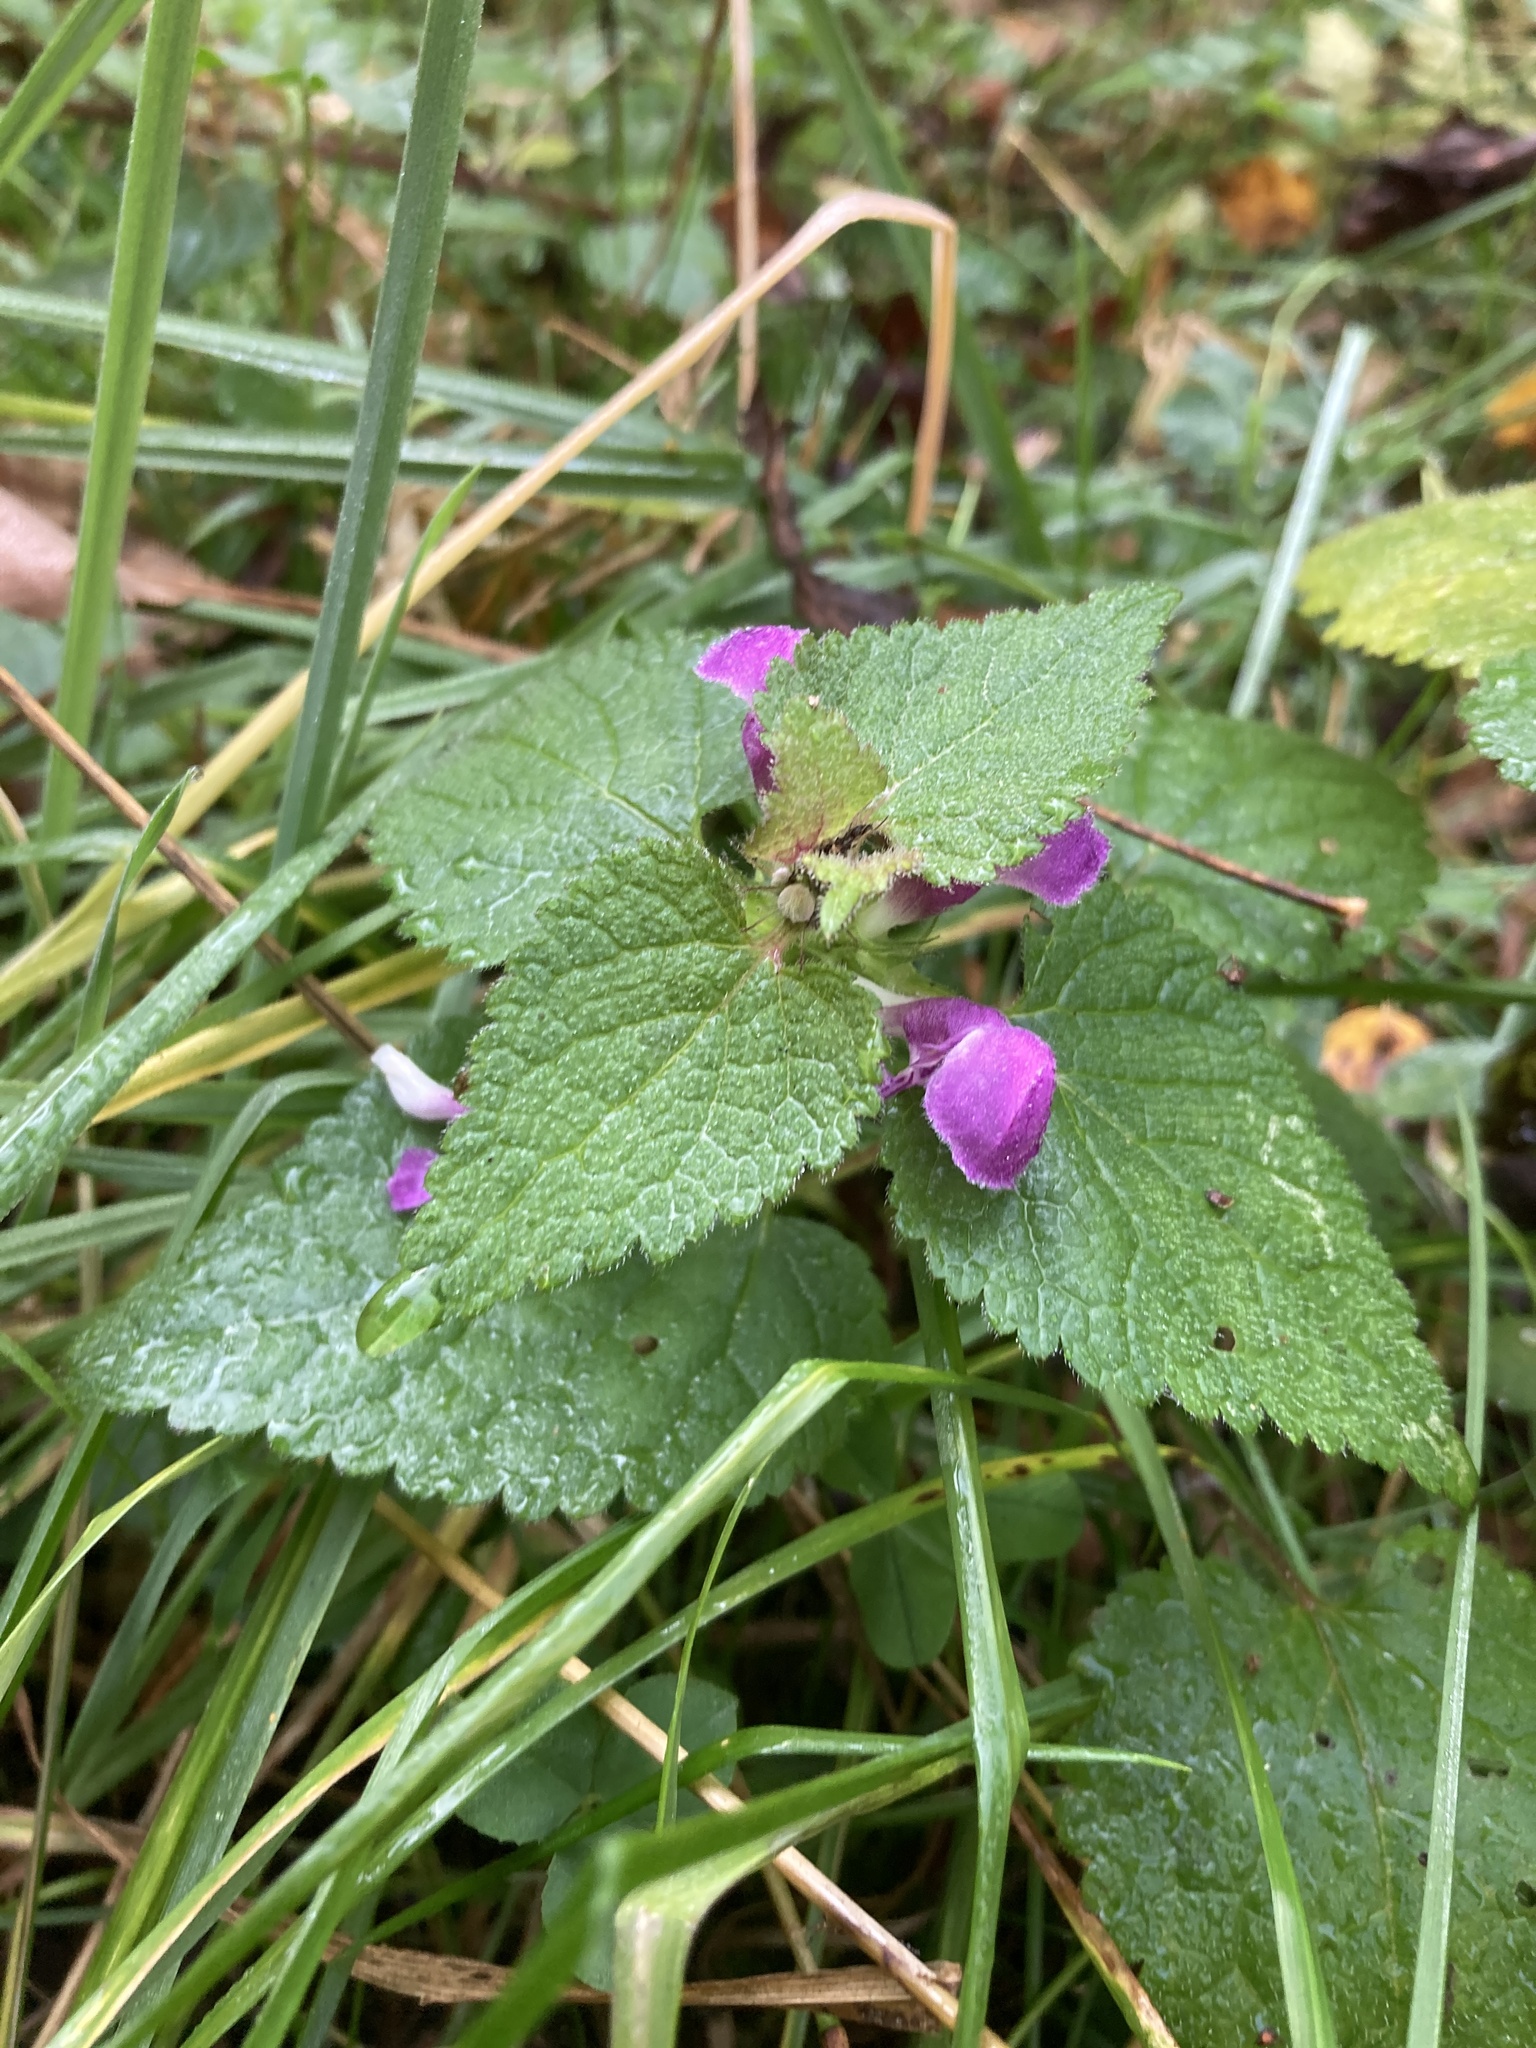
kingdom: Plantae
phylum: Tracheophyta
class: Magnoliopsida
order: Lamiales
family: Lamiaceae
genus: Lamium
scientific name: Lamium maculatum
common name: Spotted dead-nettle
